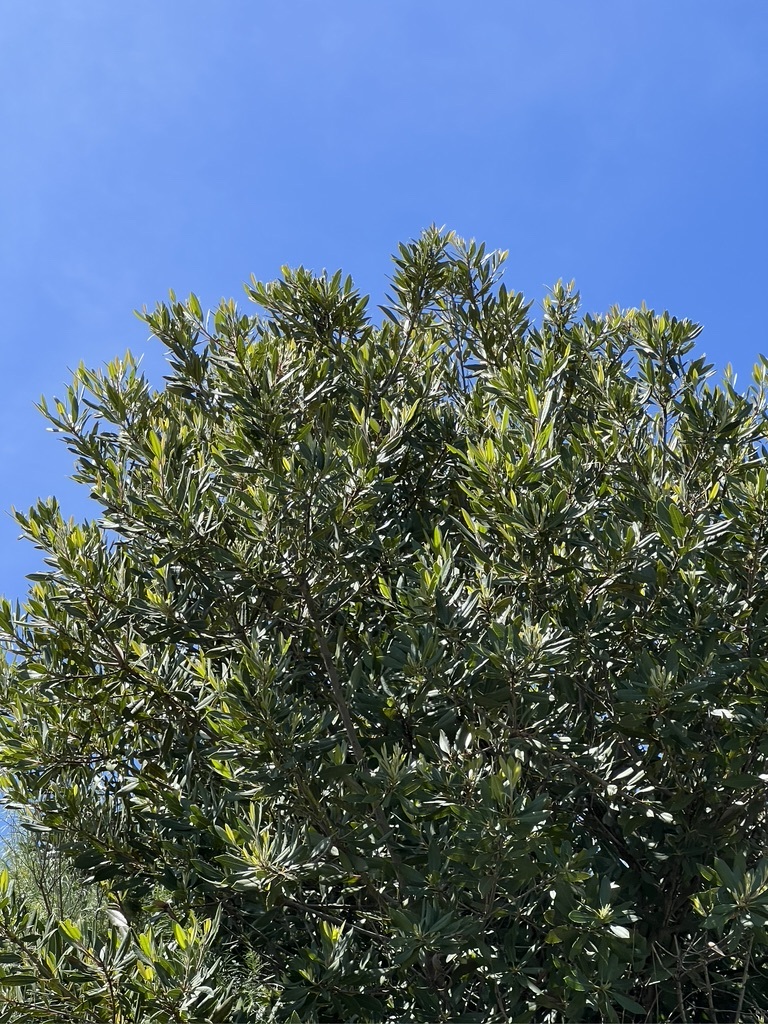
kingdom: Plantae
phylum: Tracheophyta
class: Magnoliopsida
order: Rosales
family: Rosaceae
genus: Heteromeles
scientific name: Heteromeles arbutifolia
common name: California-holly
